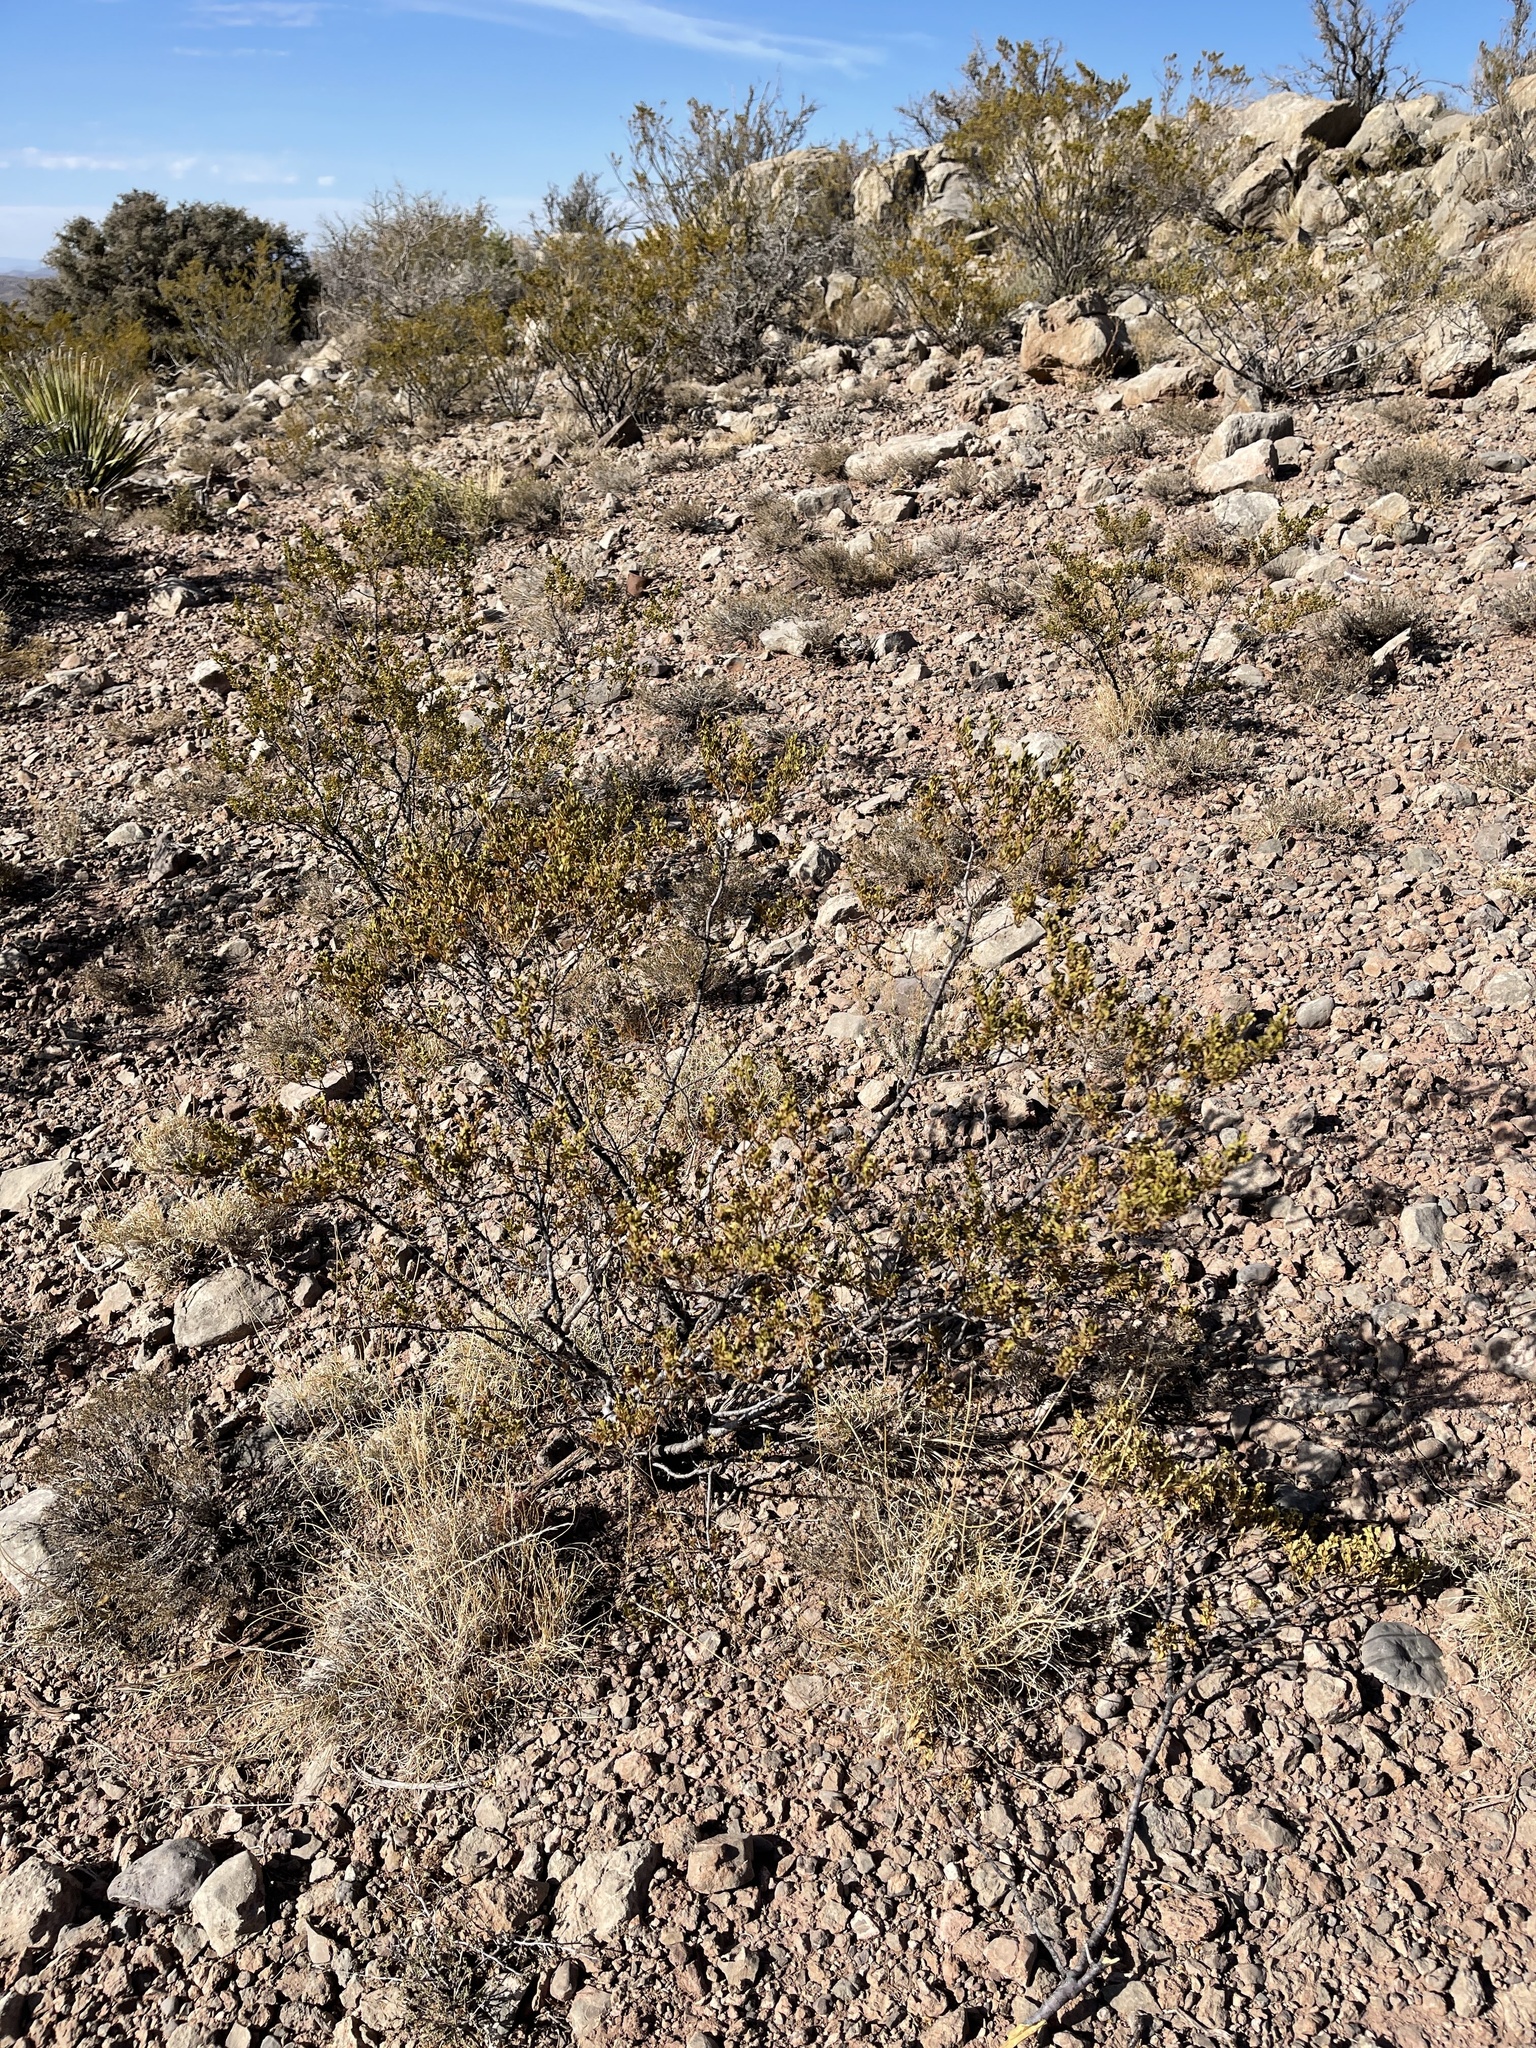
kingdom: Plantae
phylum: Tracheophyta
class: Magnoliopsida
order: Zygophyllales
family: Zygophyllaceae
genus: Larrea
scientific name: Larrea tridentata
